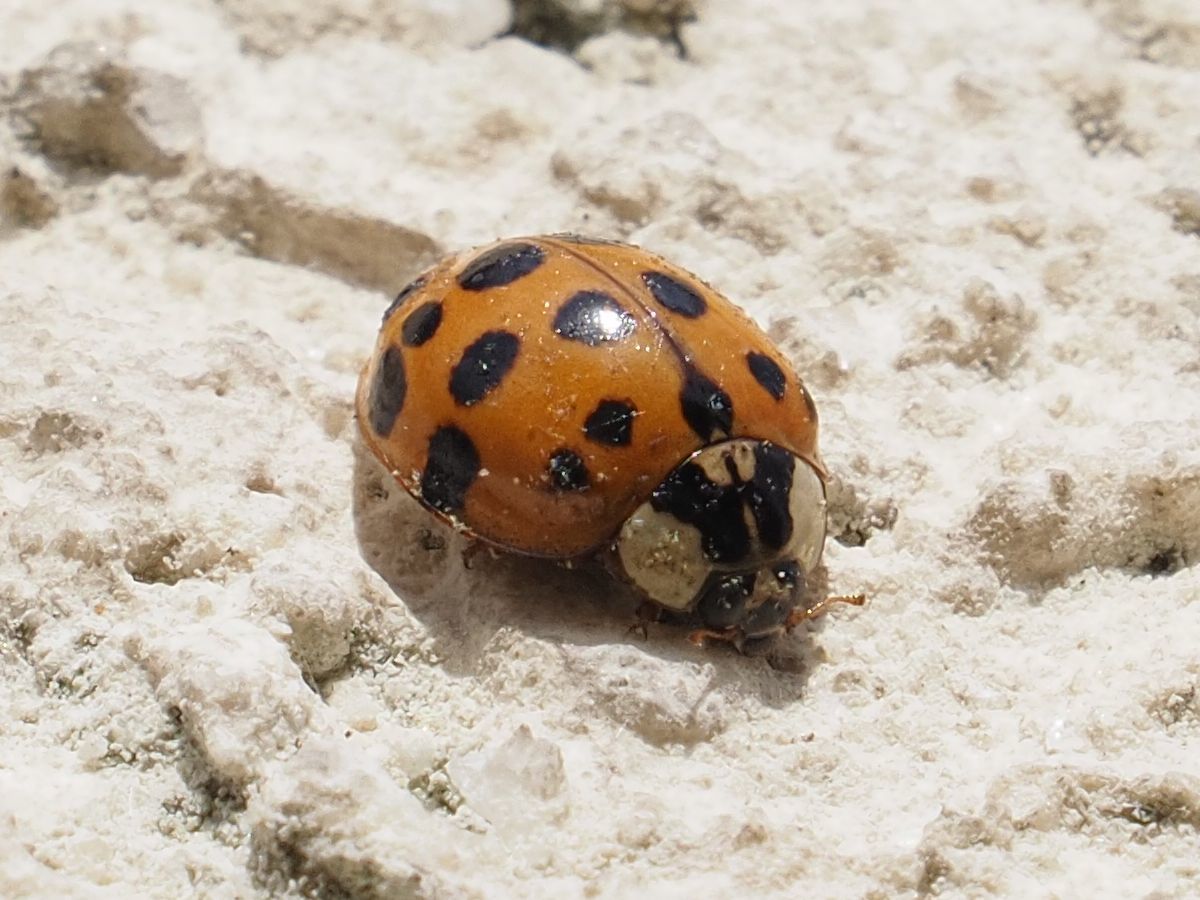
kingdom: Animalia
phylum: Arthropoda
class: Insecta
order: Coleoptera
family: Coccinellidae
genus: Harmonia
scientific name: Harmonia axyridis
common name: Harlequin ladybird
